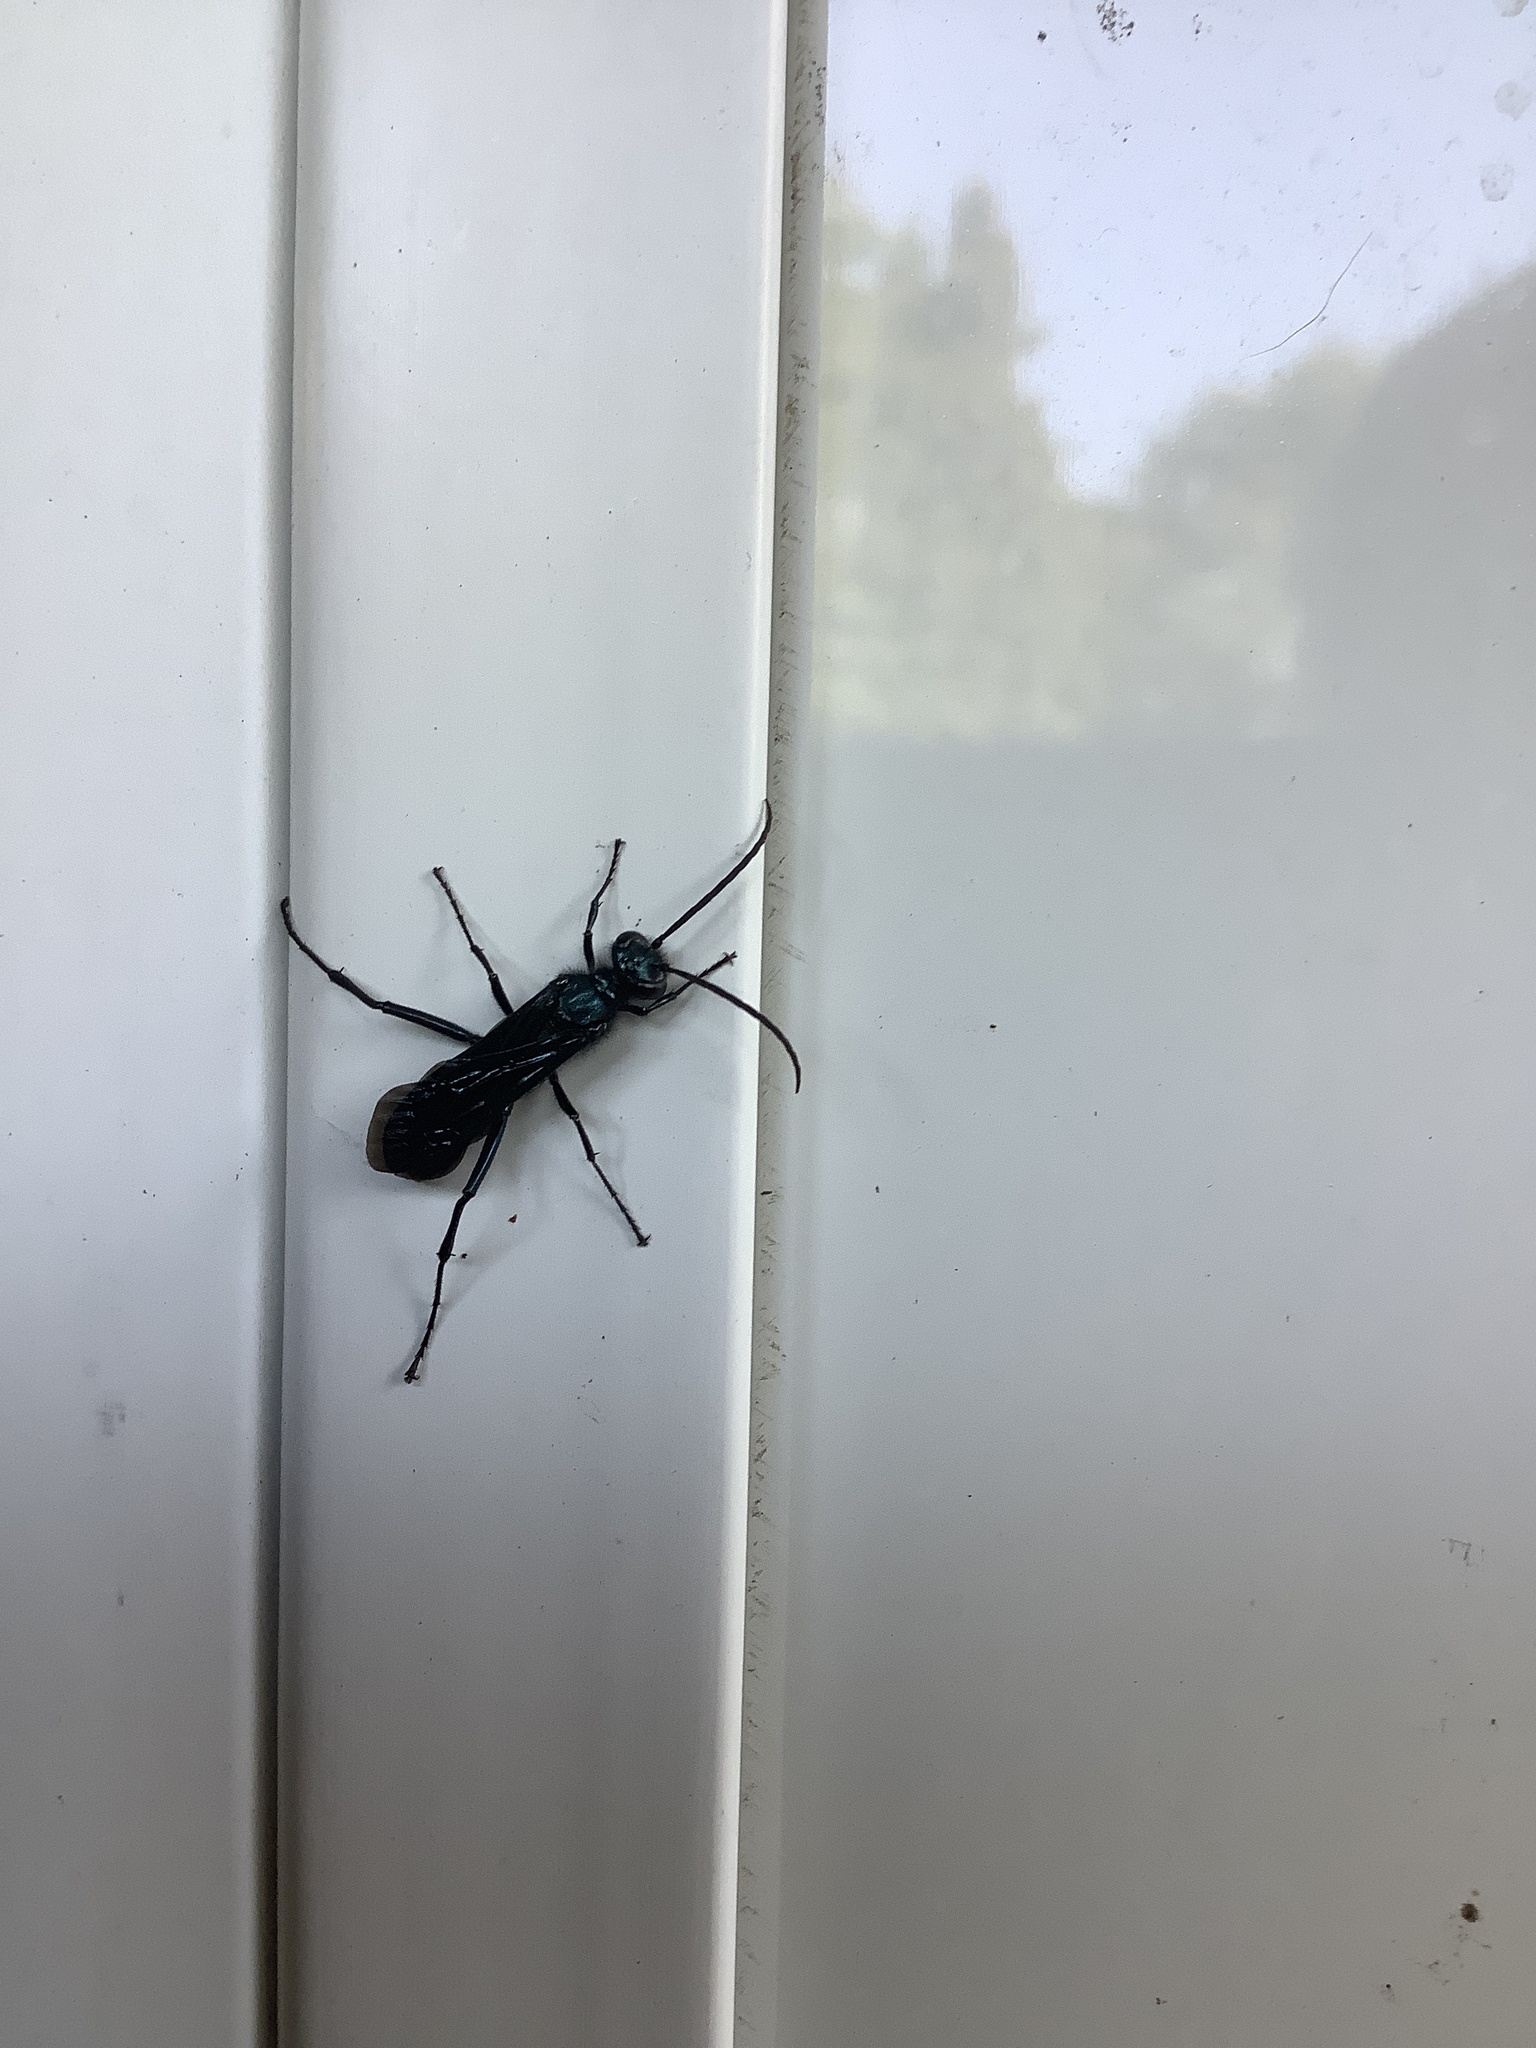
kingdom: Animalia
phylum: Arthropoda
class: Insecta
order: Hymenoptera
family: Sphecidae
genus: Chalybion
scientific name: Chalybion californicum
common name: Mud dauber
